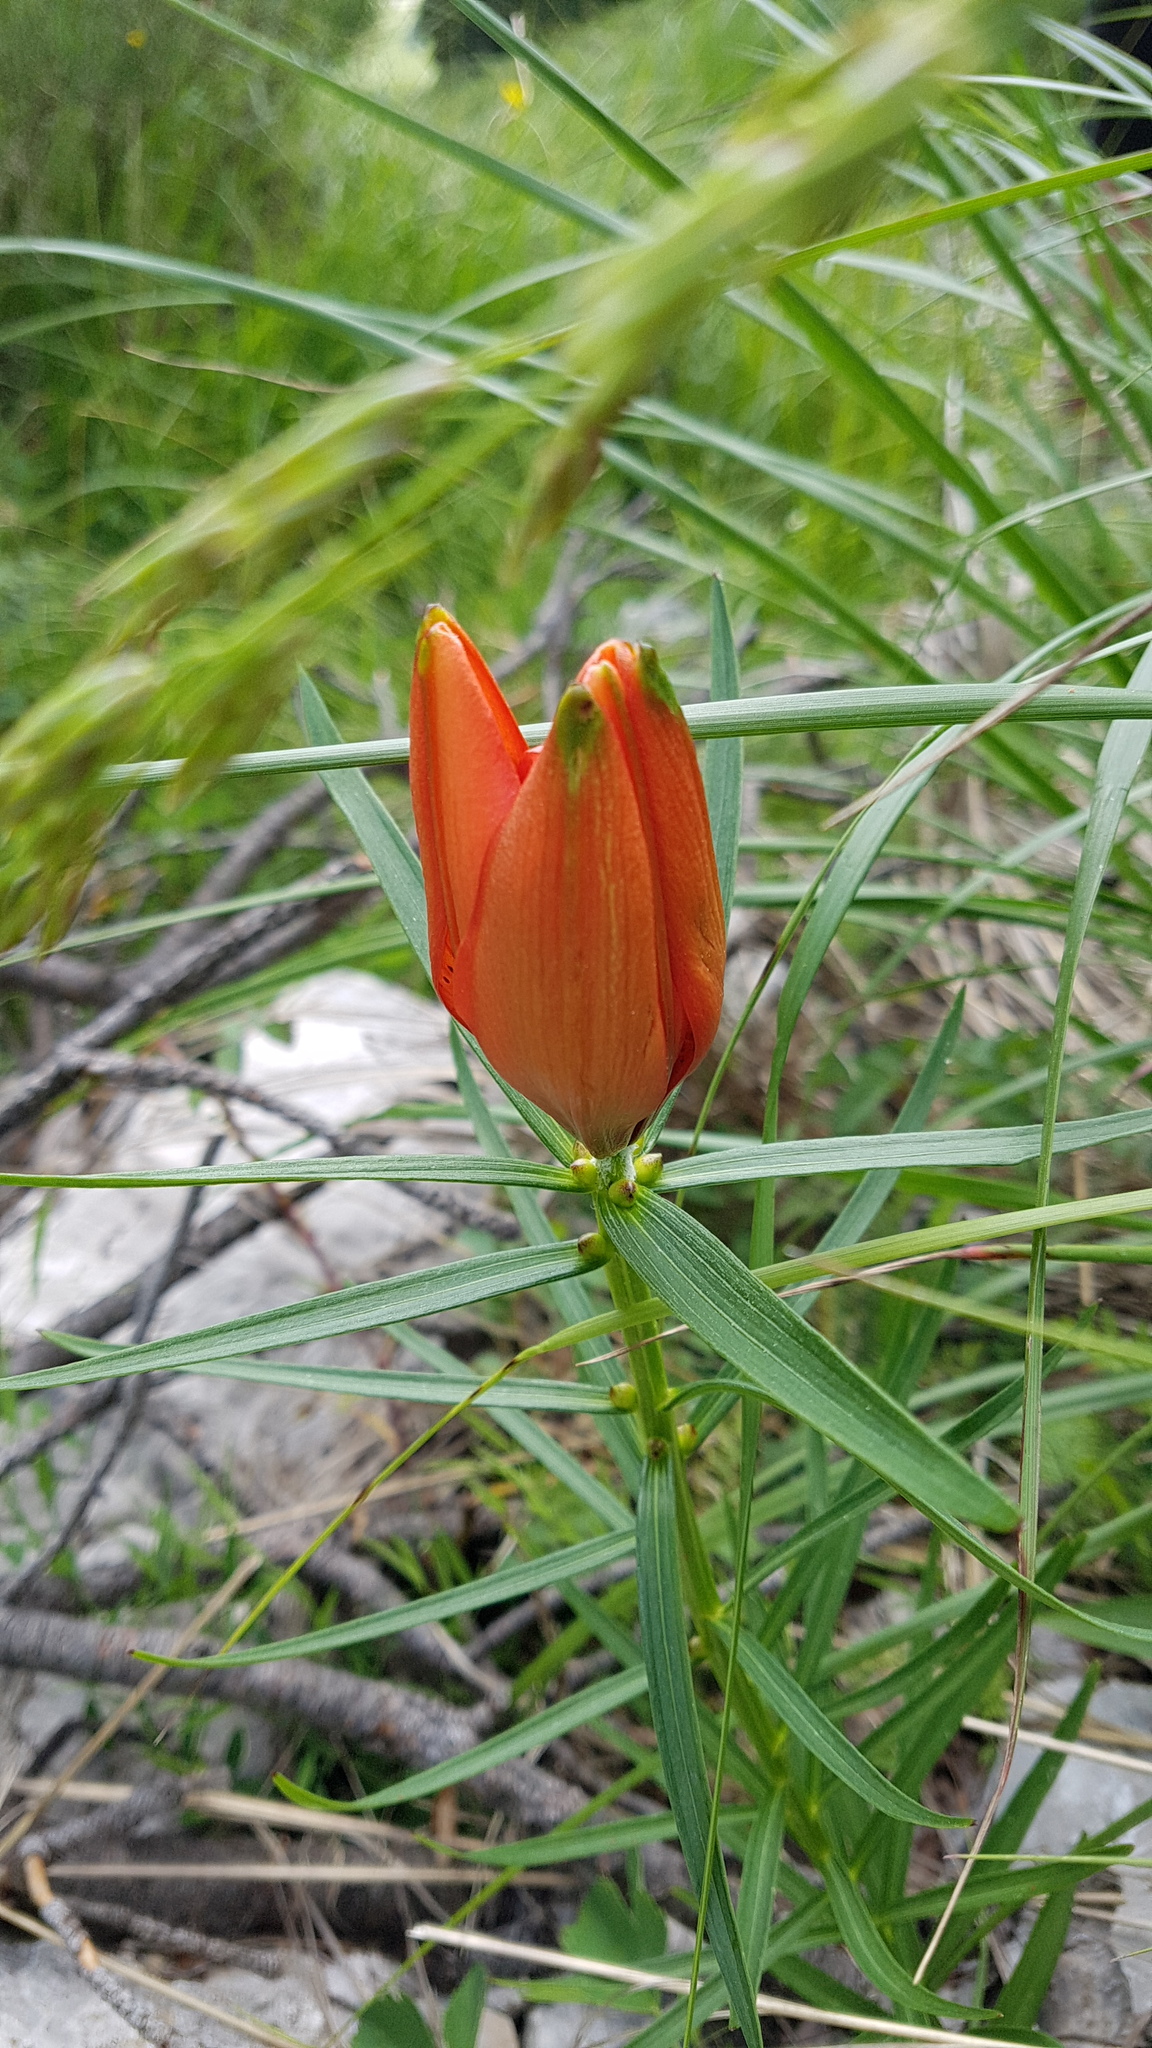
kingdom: Plantae
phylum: Tracheophyta
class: Liliopsida
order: Liliales
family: Liliaceae
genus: Lilium
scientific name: Lilium bulbiferum
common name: Orange lily
